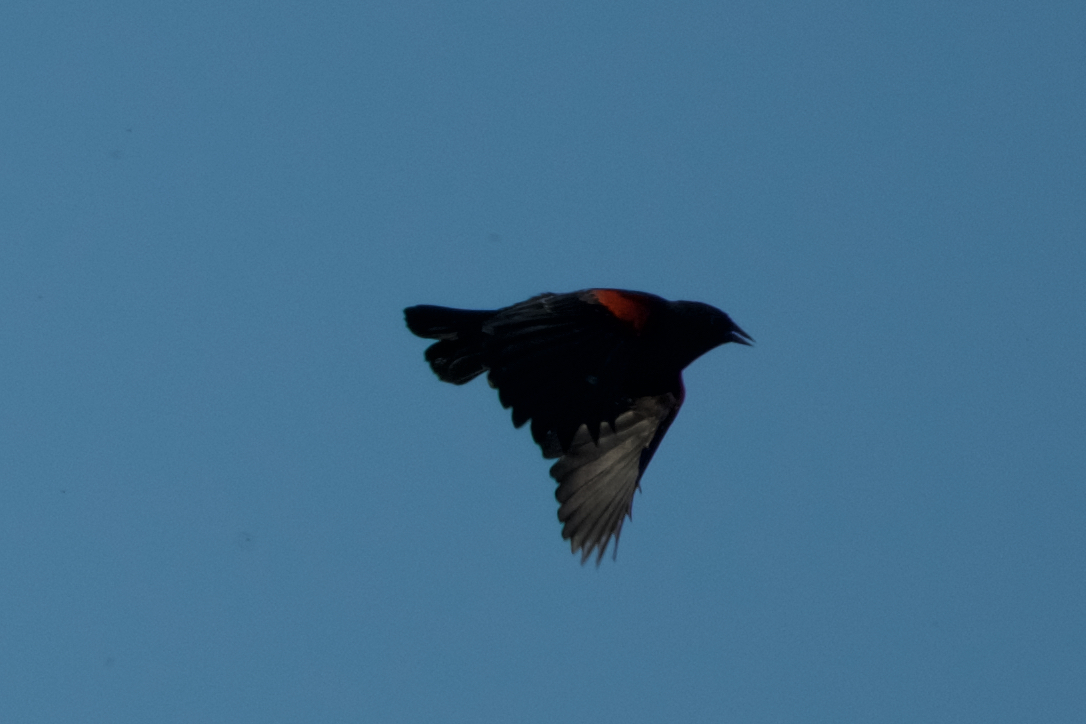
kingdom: Animalia
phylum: Chordata
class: Aves
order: Passeriformes
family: Icteridae
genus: Agelaius
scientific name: Agelaius phoeniceus
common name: Red-winged blackbird
